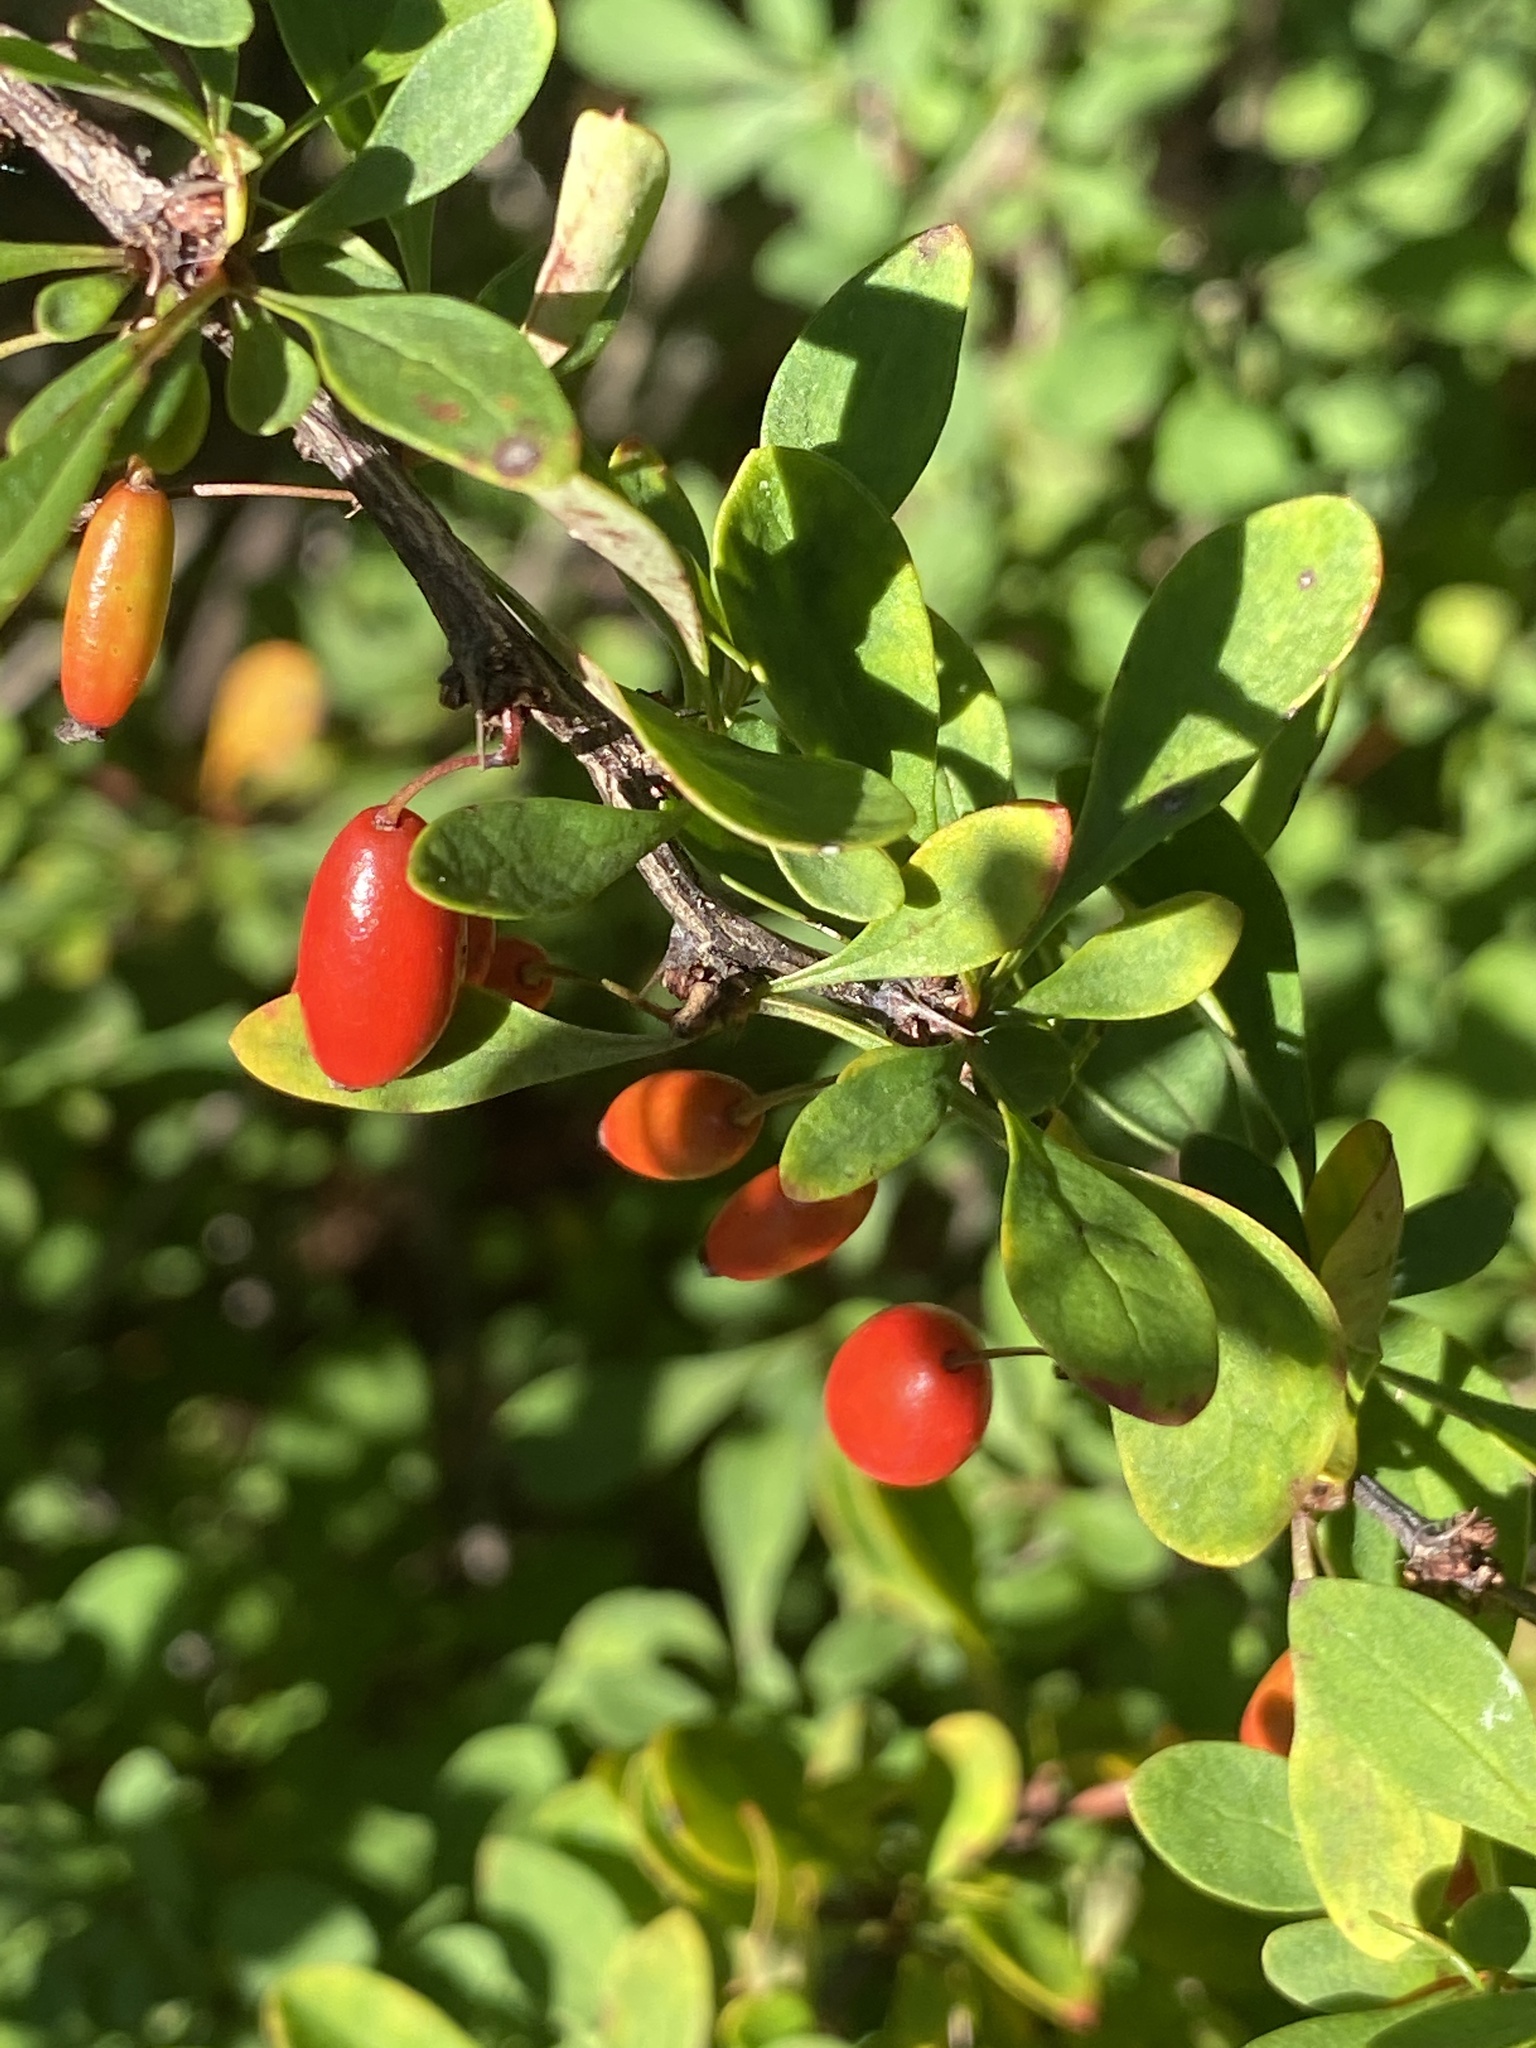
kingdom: Plantae
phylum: Tracheophyta
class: Magnoliopsida
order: Ranunculales
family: Berberidaceae
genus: Berberis
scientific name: Berberis thunbergii
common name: Japanese barberry
